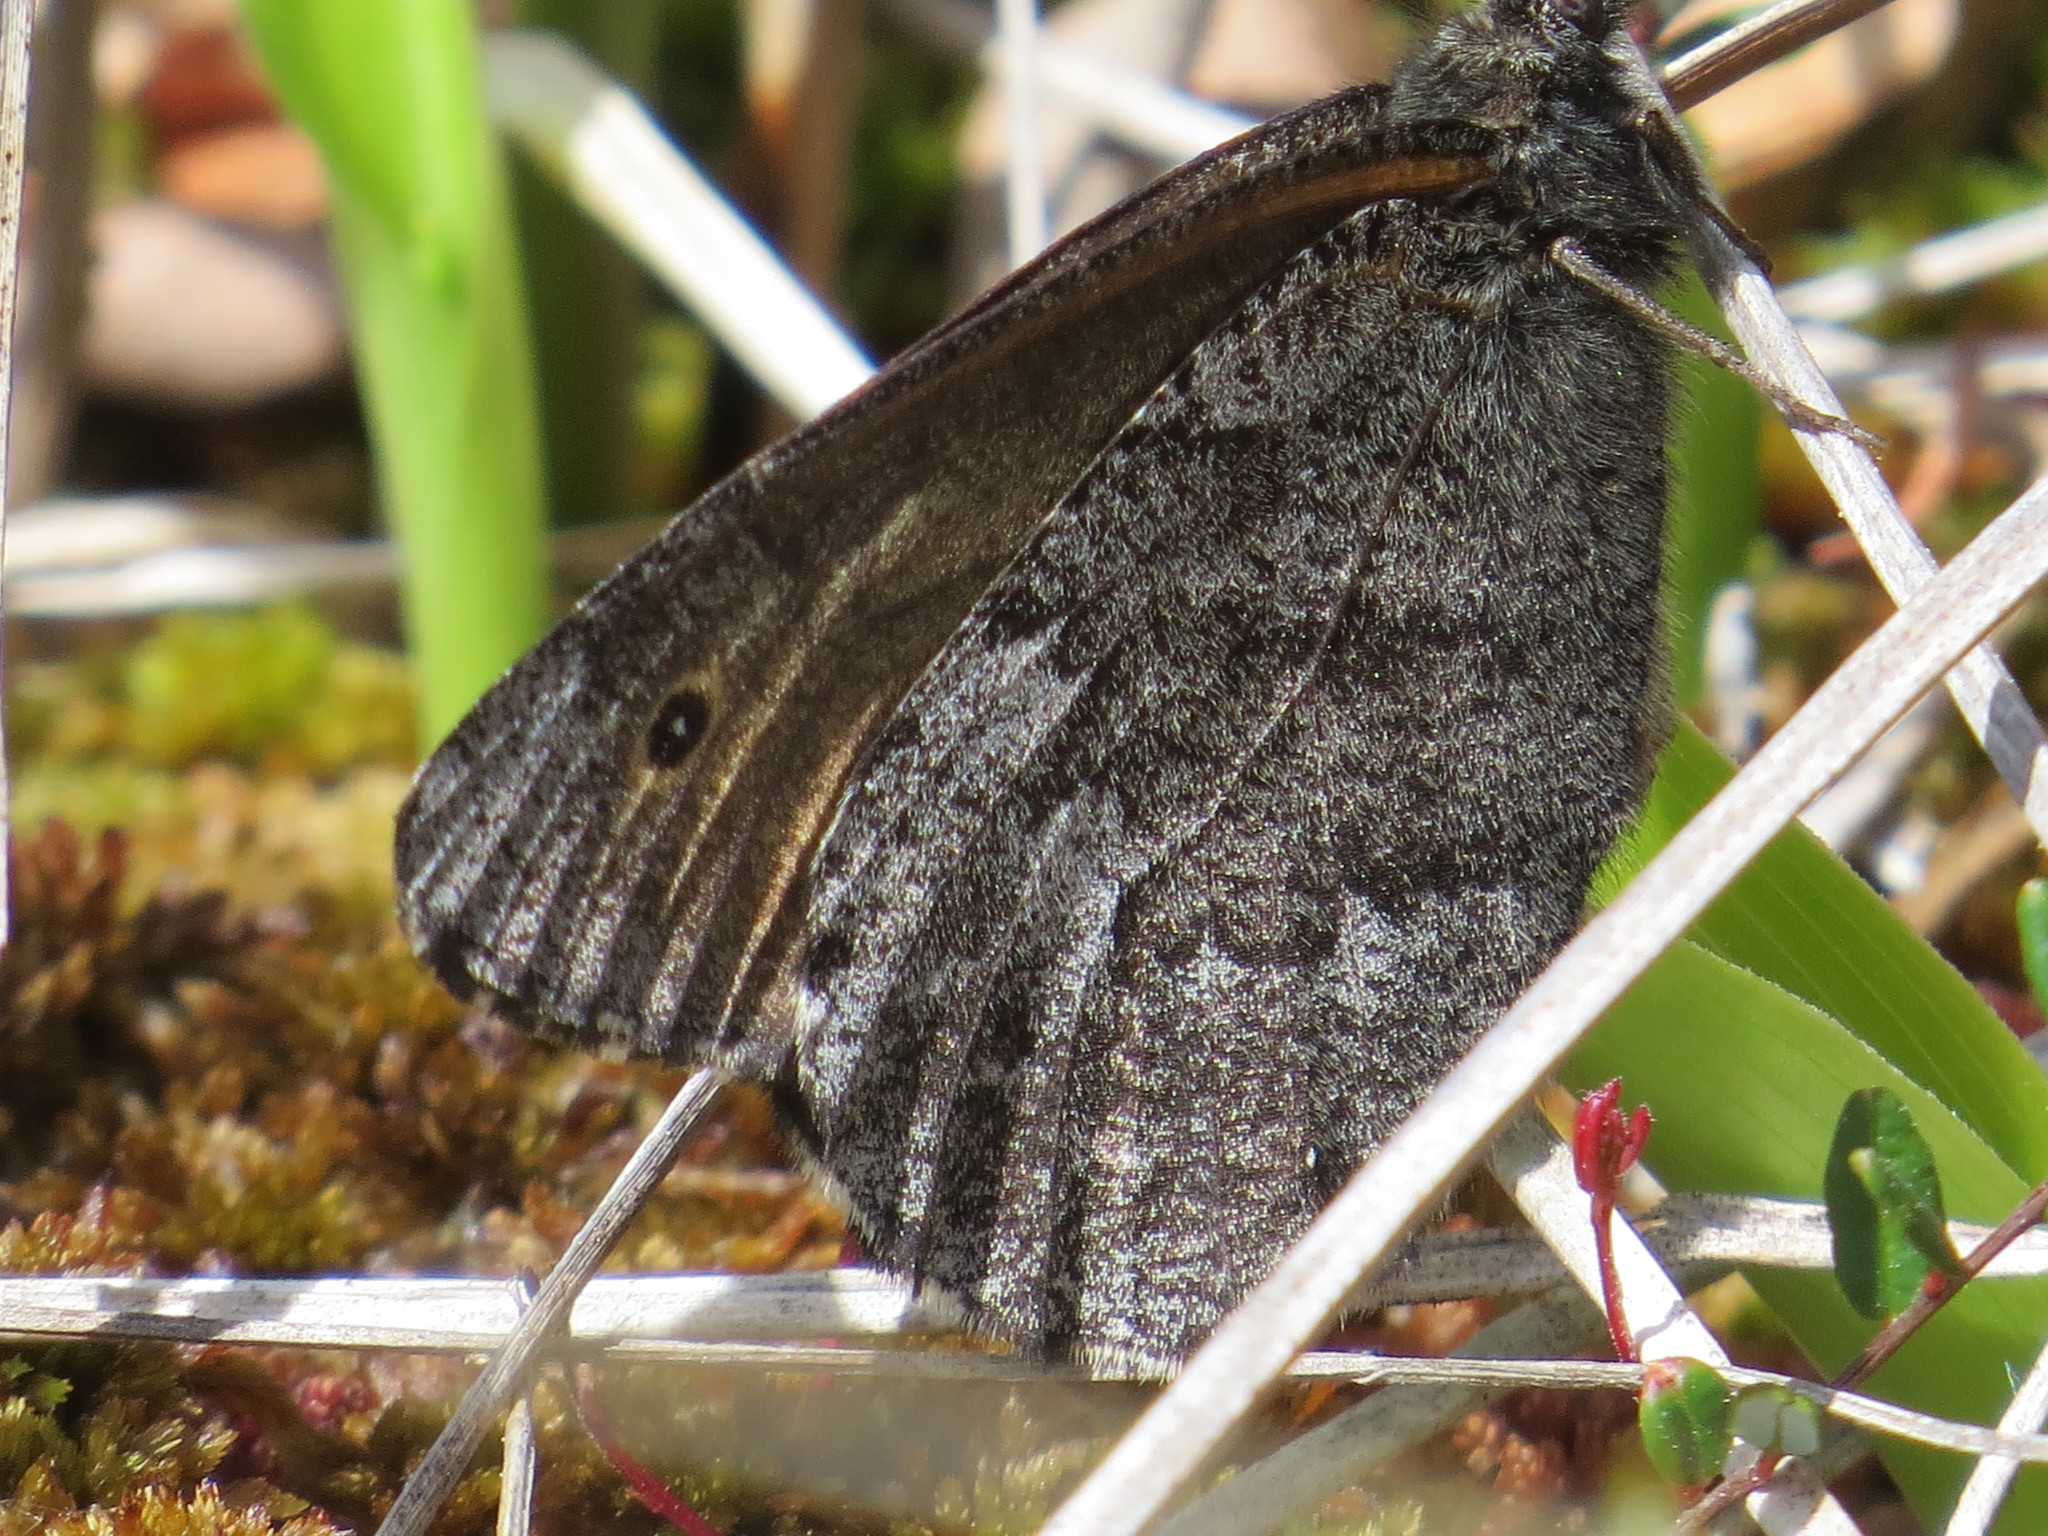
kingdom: Animalia
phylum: Arthropoda
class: Insecta
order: Lepidoptera
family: Nymphalidae
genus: Oeneis
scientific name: Oeneis jutta
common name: Baltic grayling
